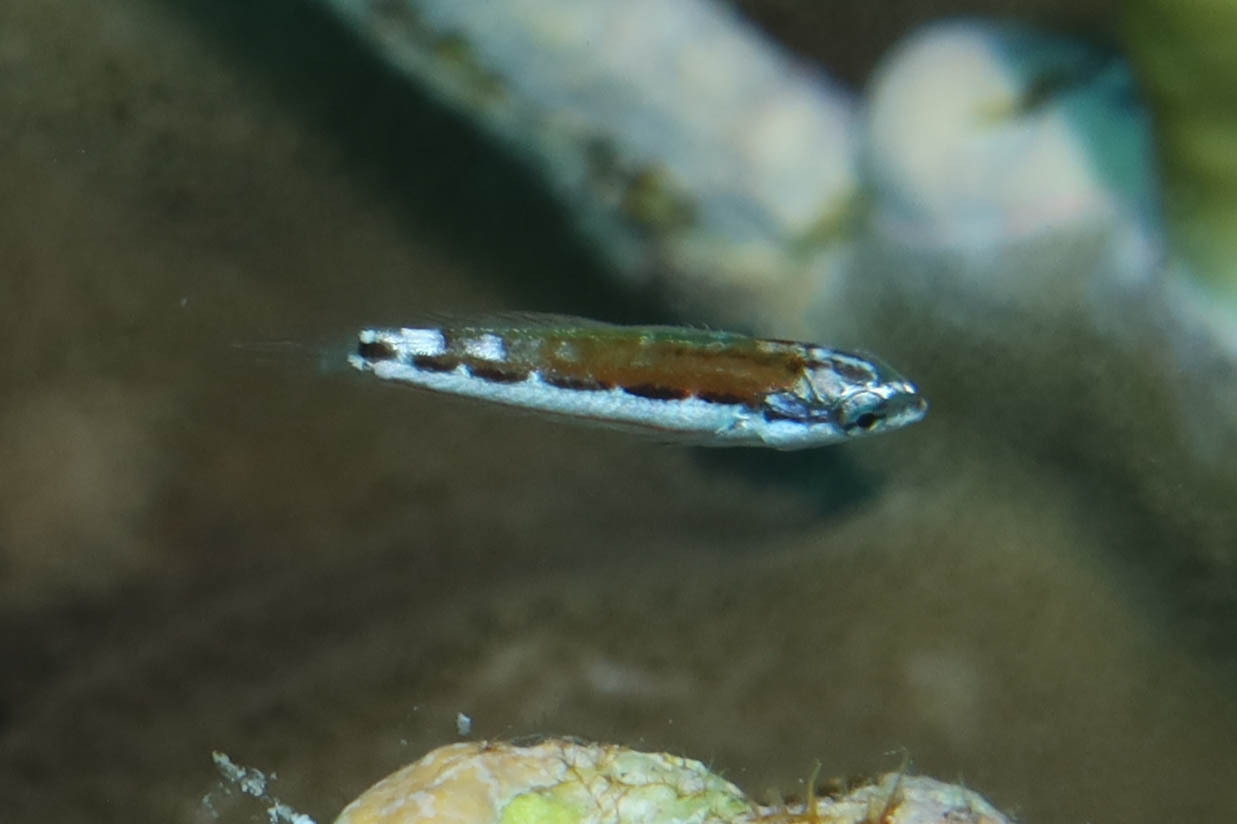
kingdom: Animalia
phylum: Chordata
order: Perciformes
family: Labridae
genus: Thalassoma
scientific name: Thalassoma rueppellii
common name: Klunzinger's wrasse
